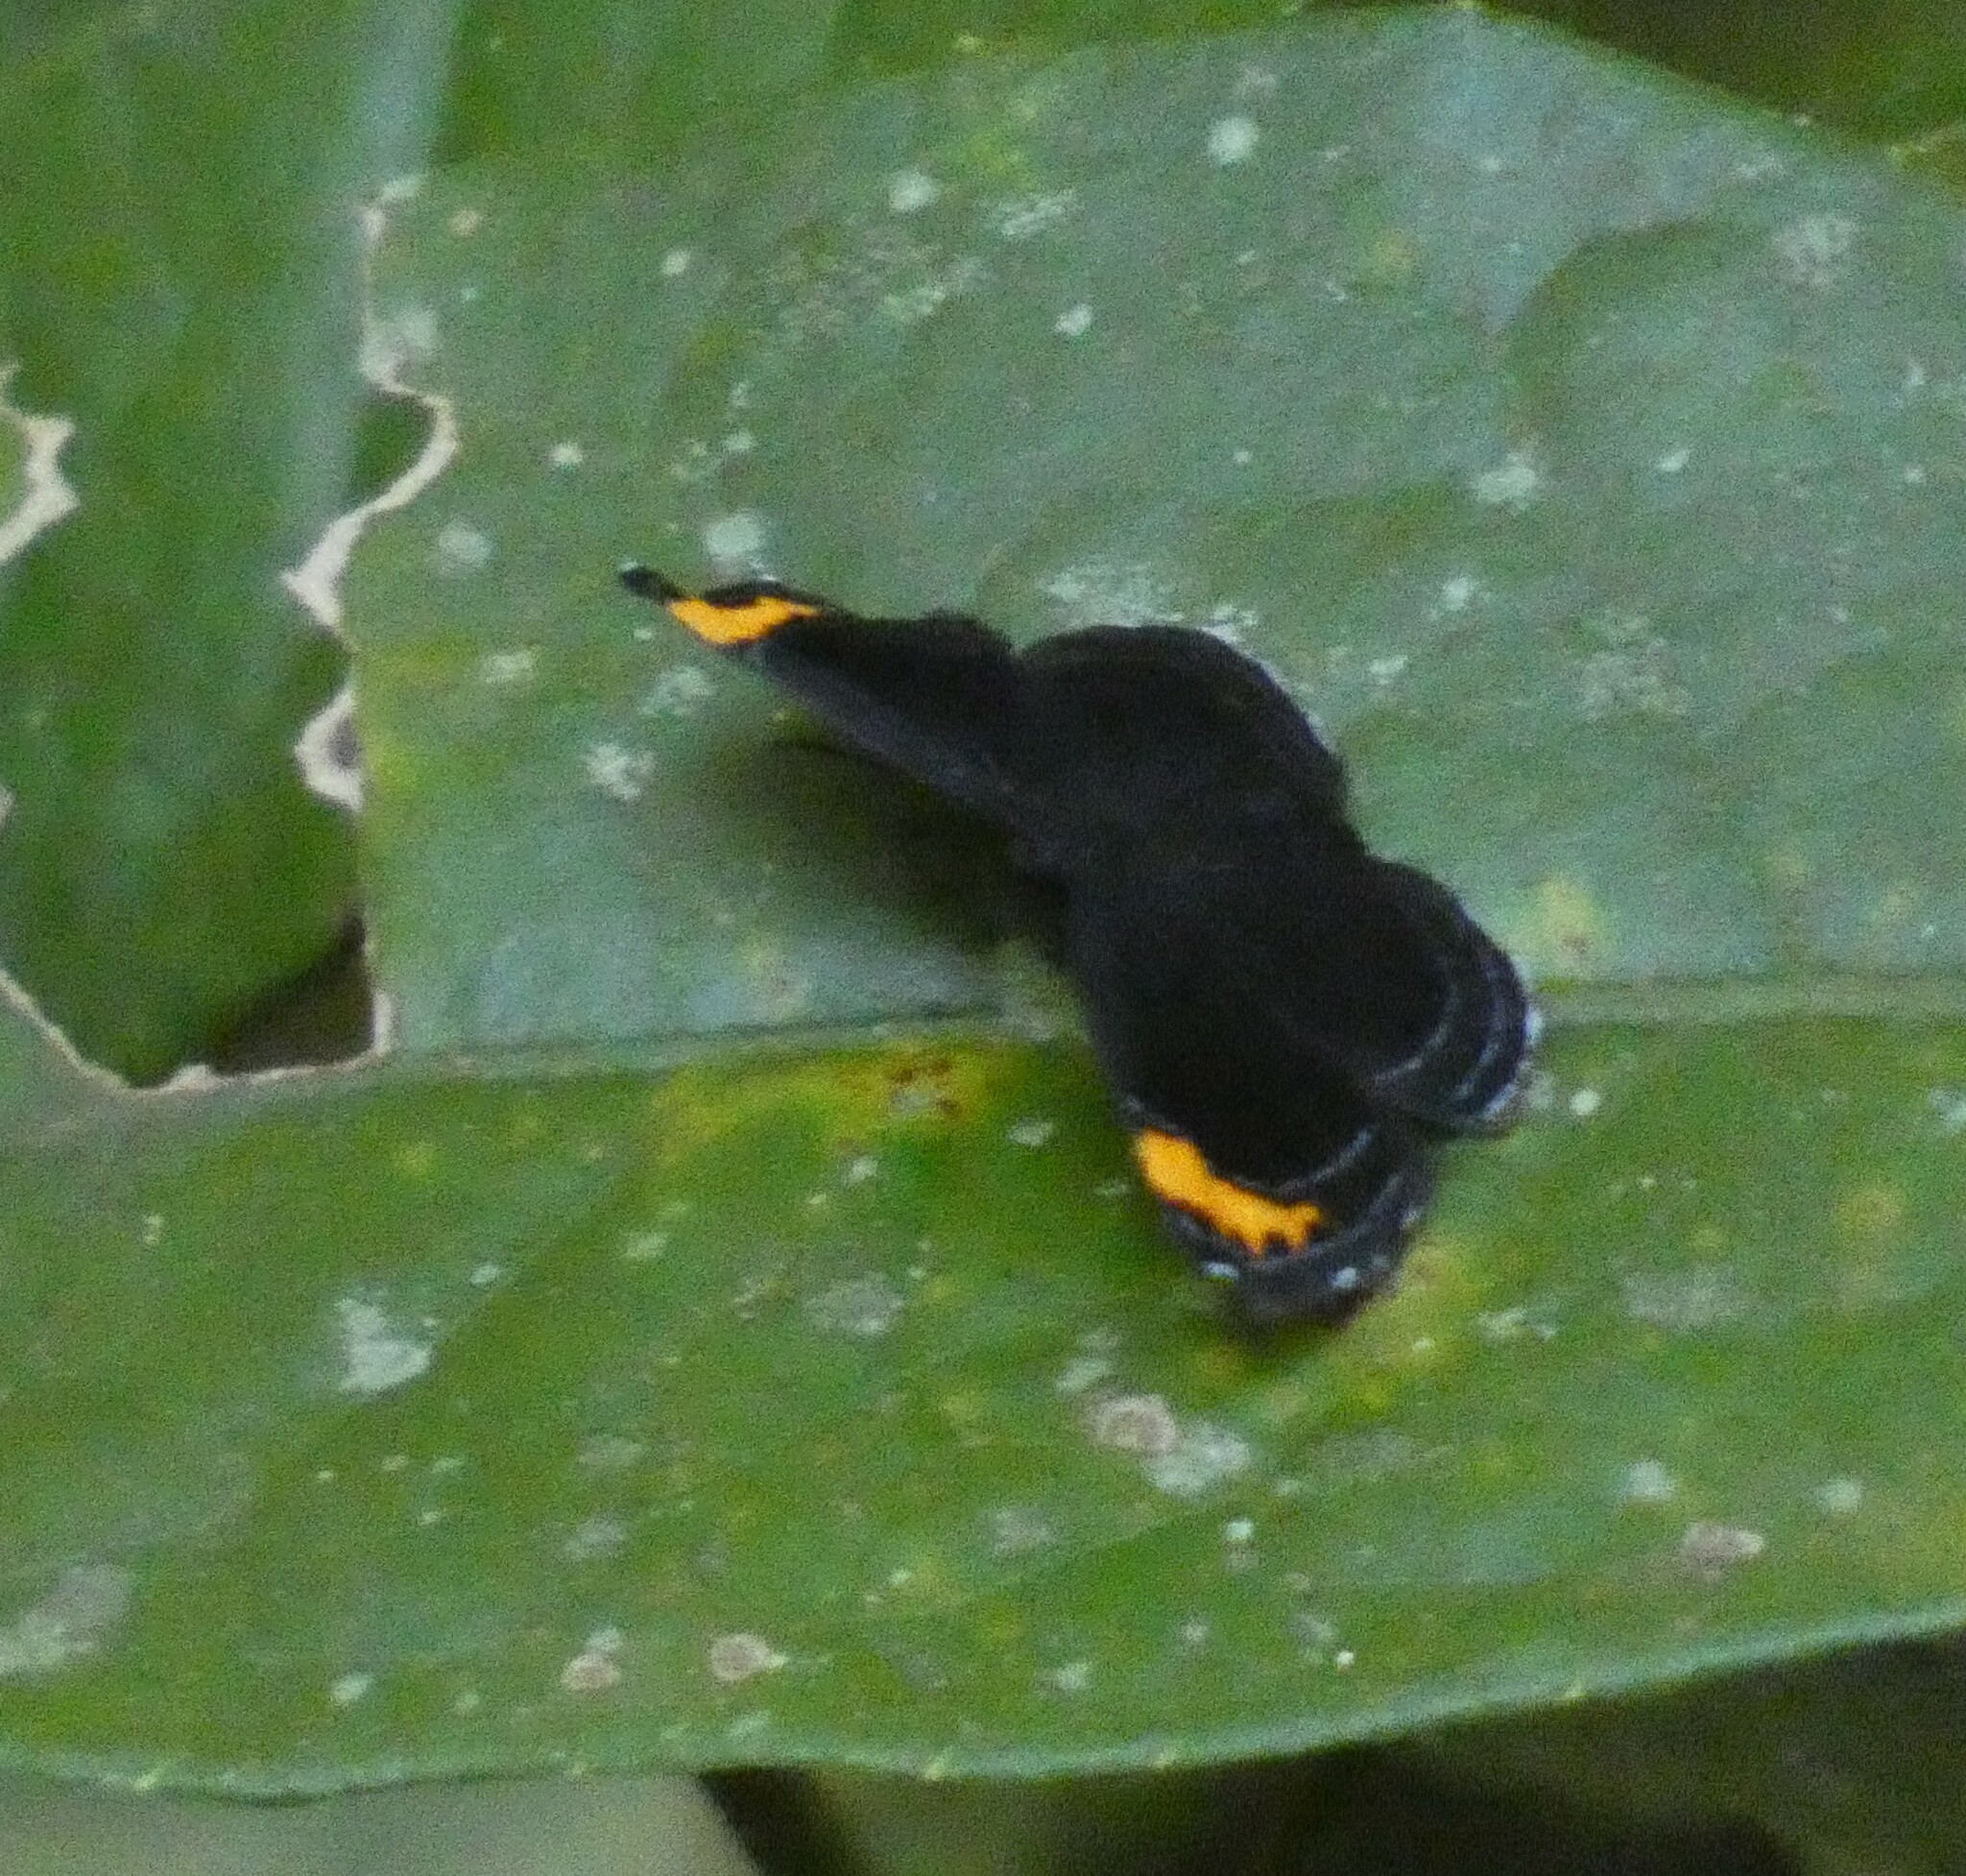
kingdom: Animalia
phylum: Arthropoda
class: Insecta
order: Lepidoptera
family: Riodinidae
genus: Nelone
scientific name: Nelone cadmeis
